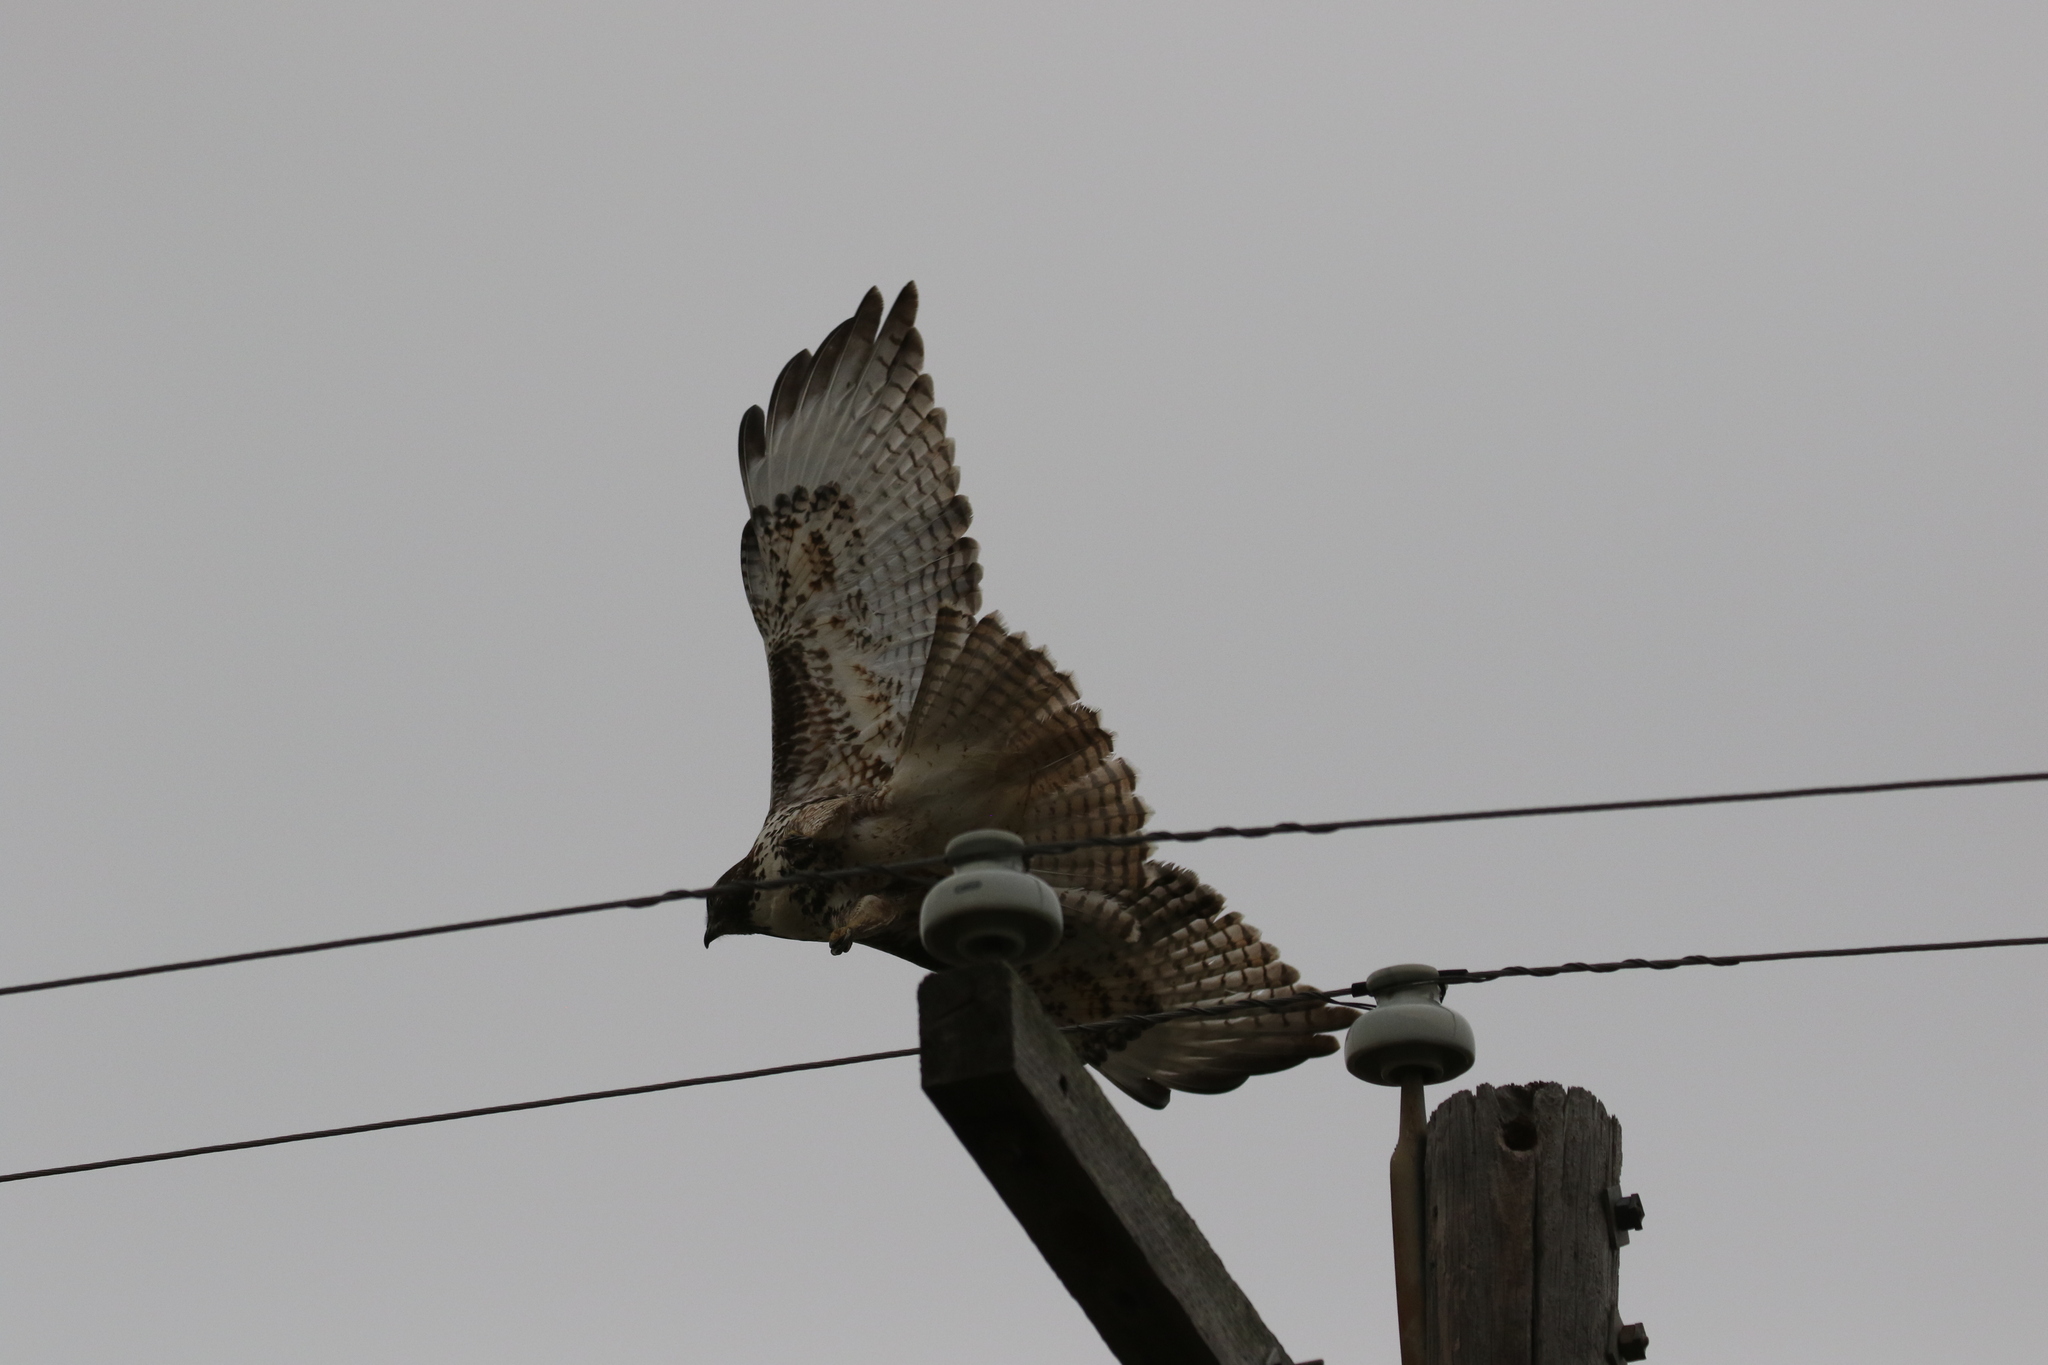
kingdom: Animalia
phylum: Chordata
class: Aves
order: Accipitriformes
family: Accipitridae
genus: Buteo
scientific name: Buteo jamaicensis
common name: Red-tailed hawk
